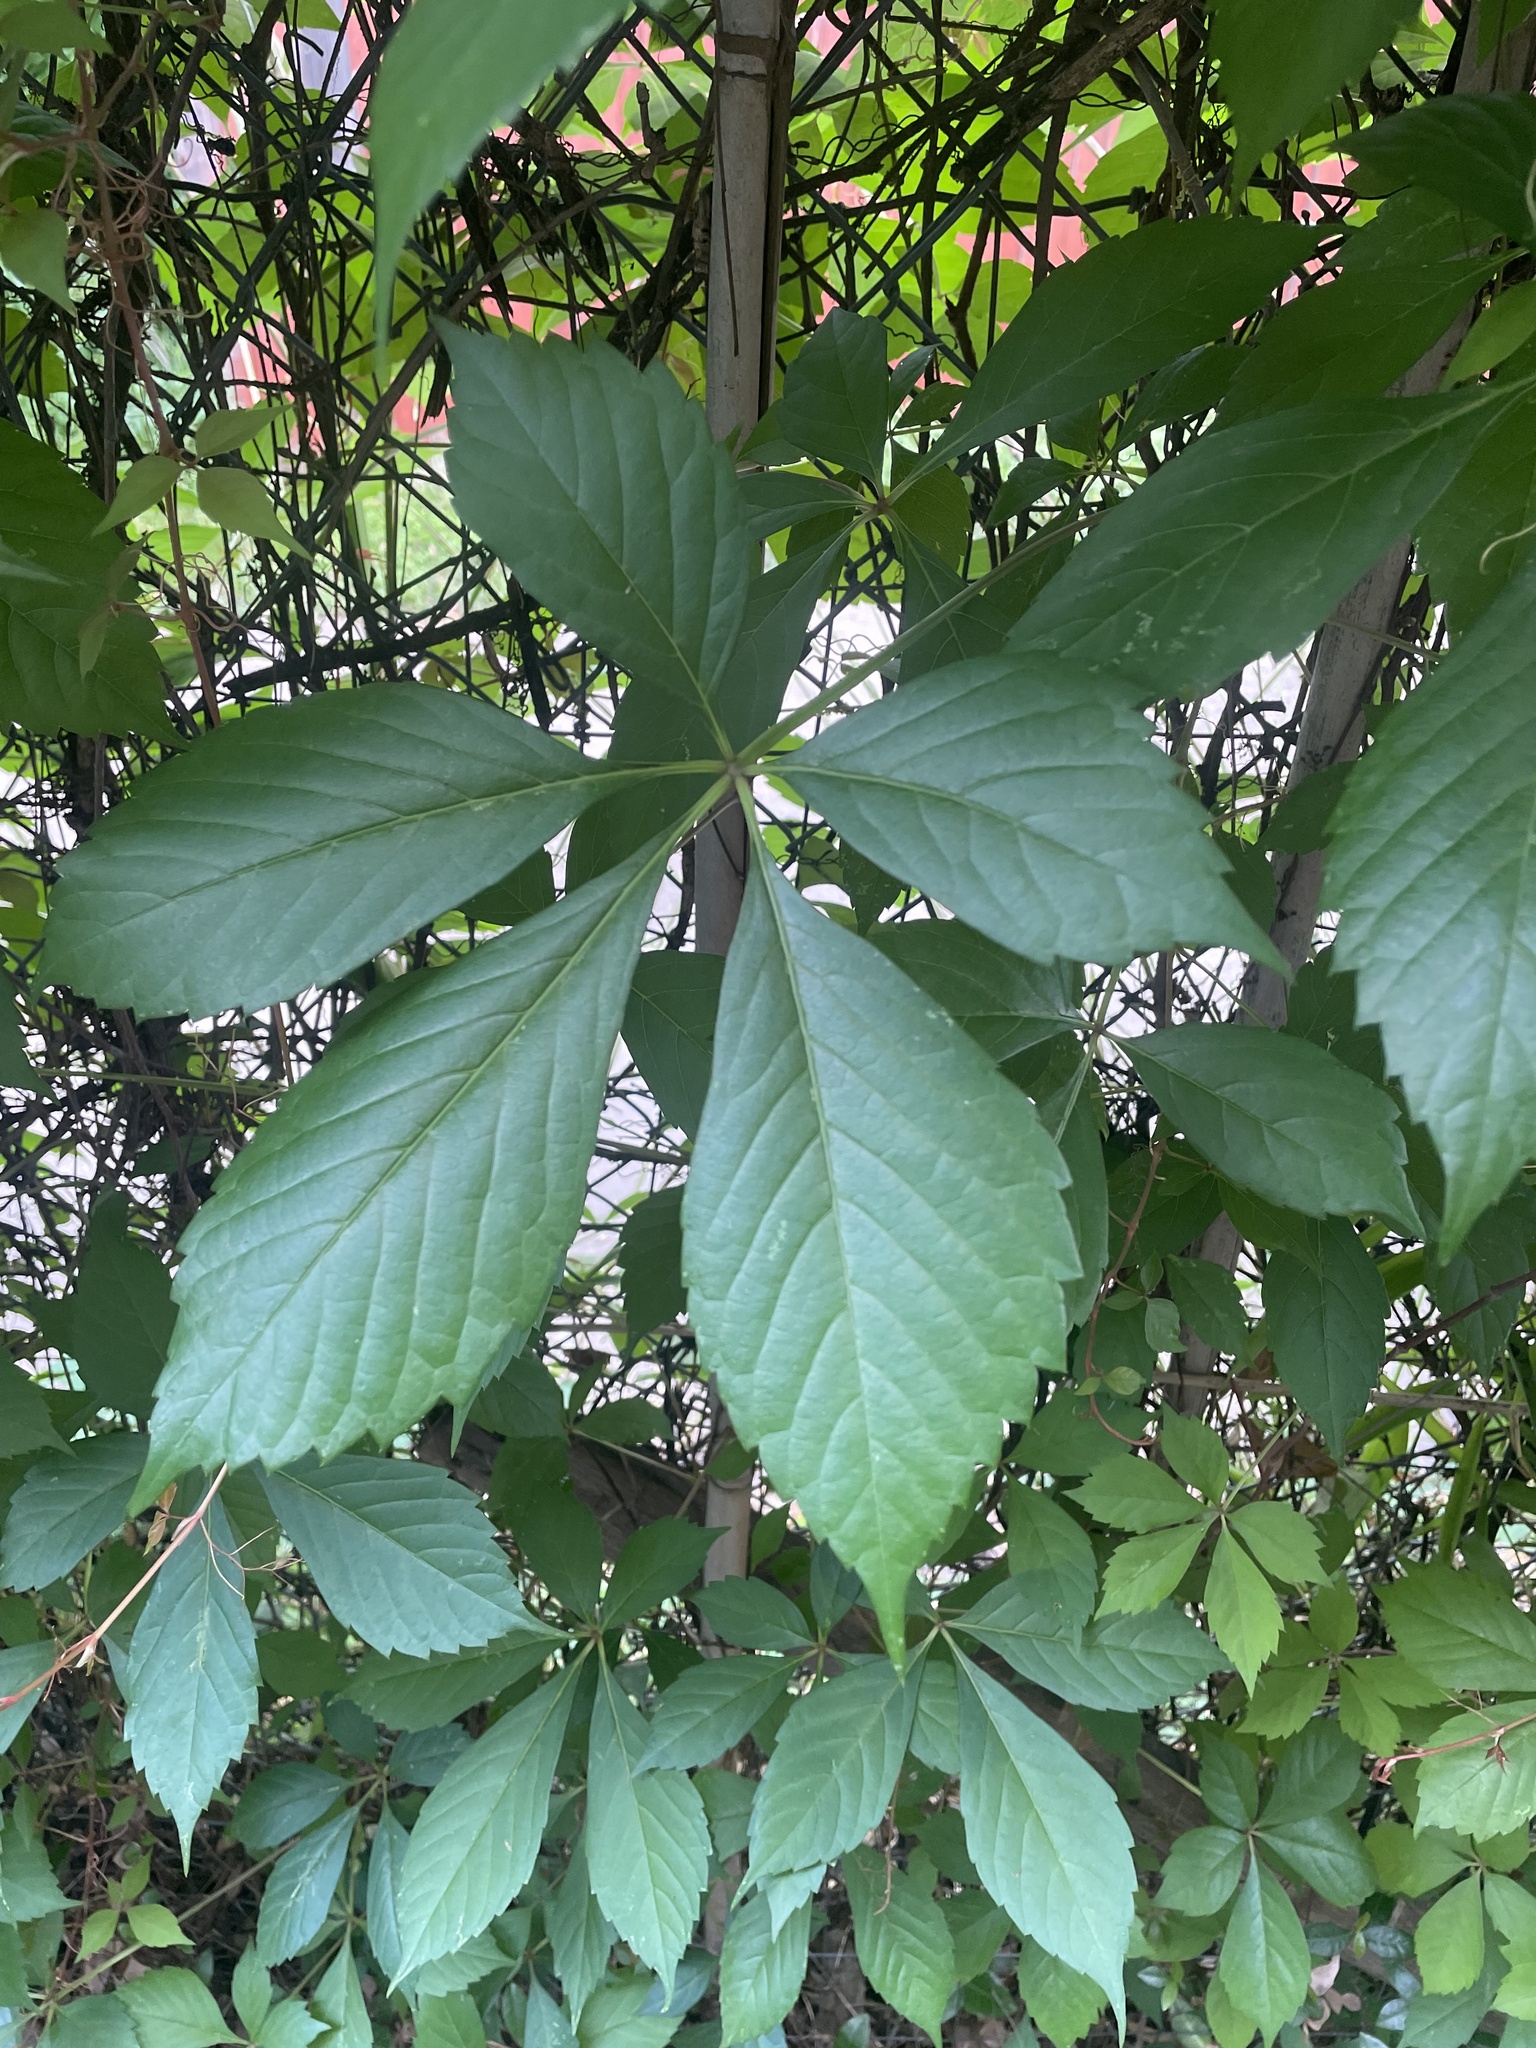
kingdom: Plantae
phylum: Tracheophyta
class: Magnoliopsida
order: Vitales
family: Vitaceae
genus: Parthenocissus
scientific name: Parthenocissus quinquefolia
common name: Virginia-creeper
